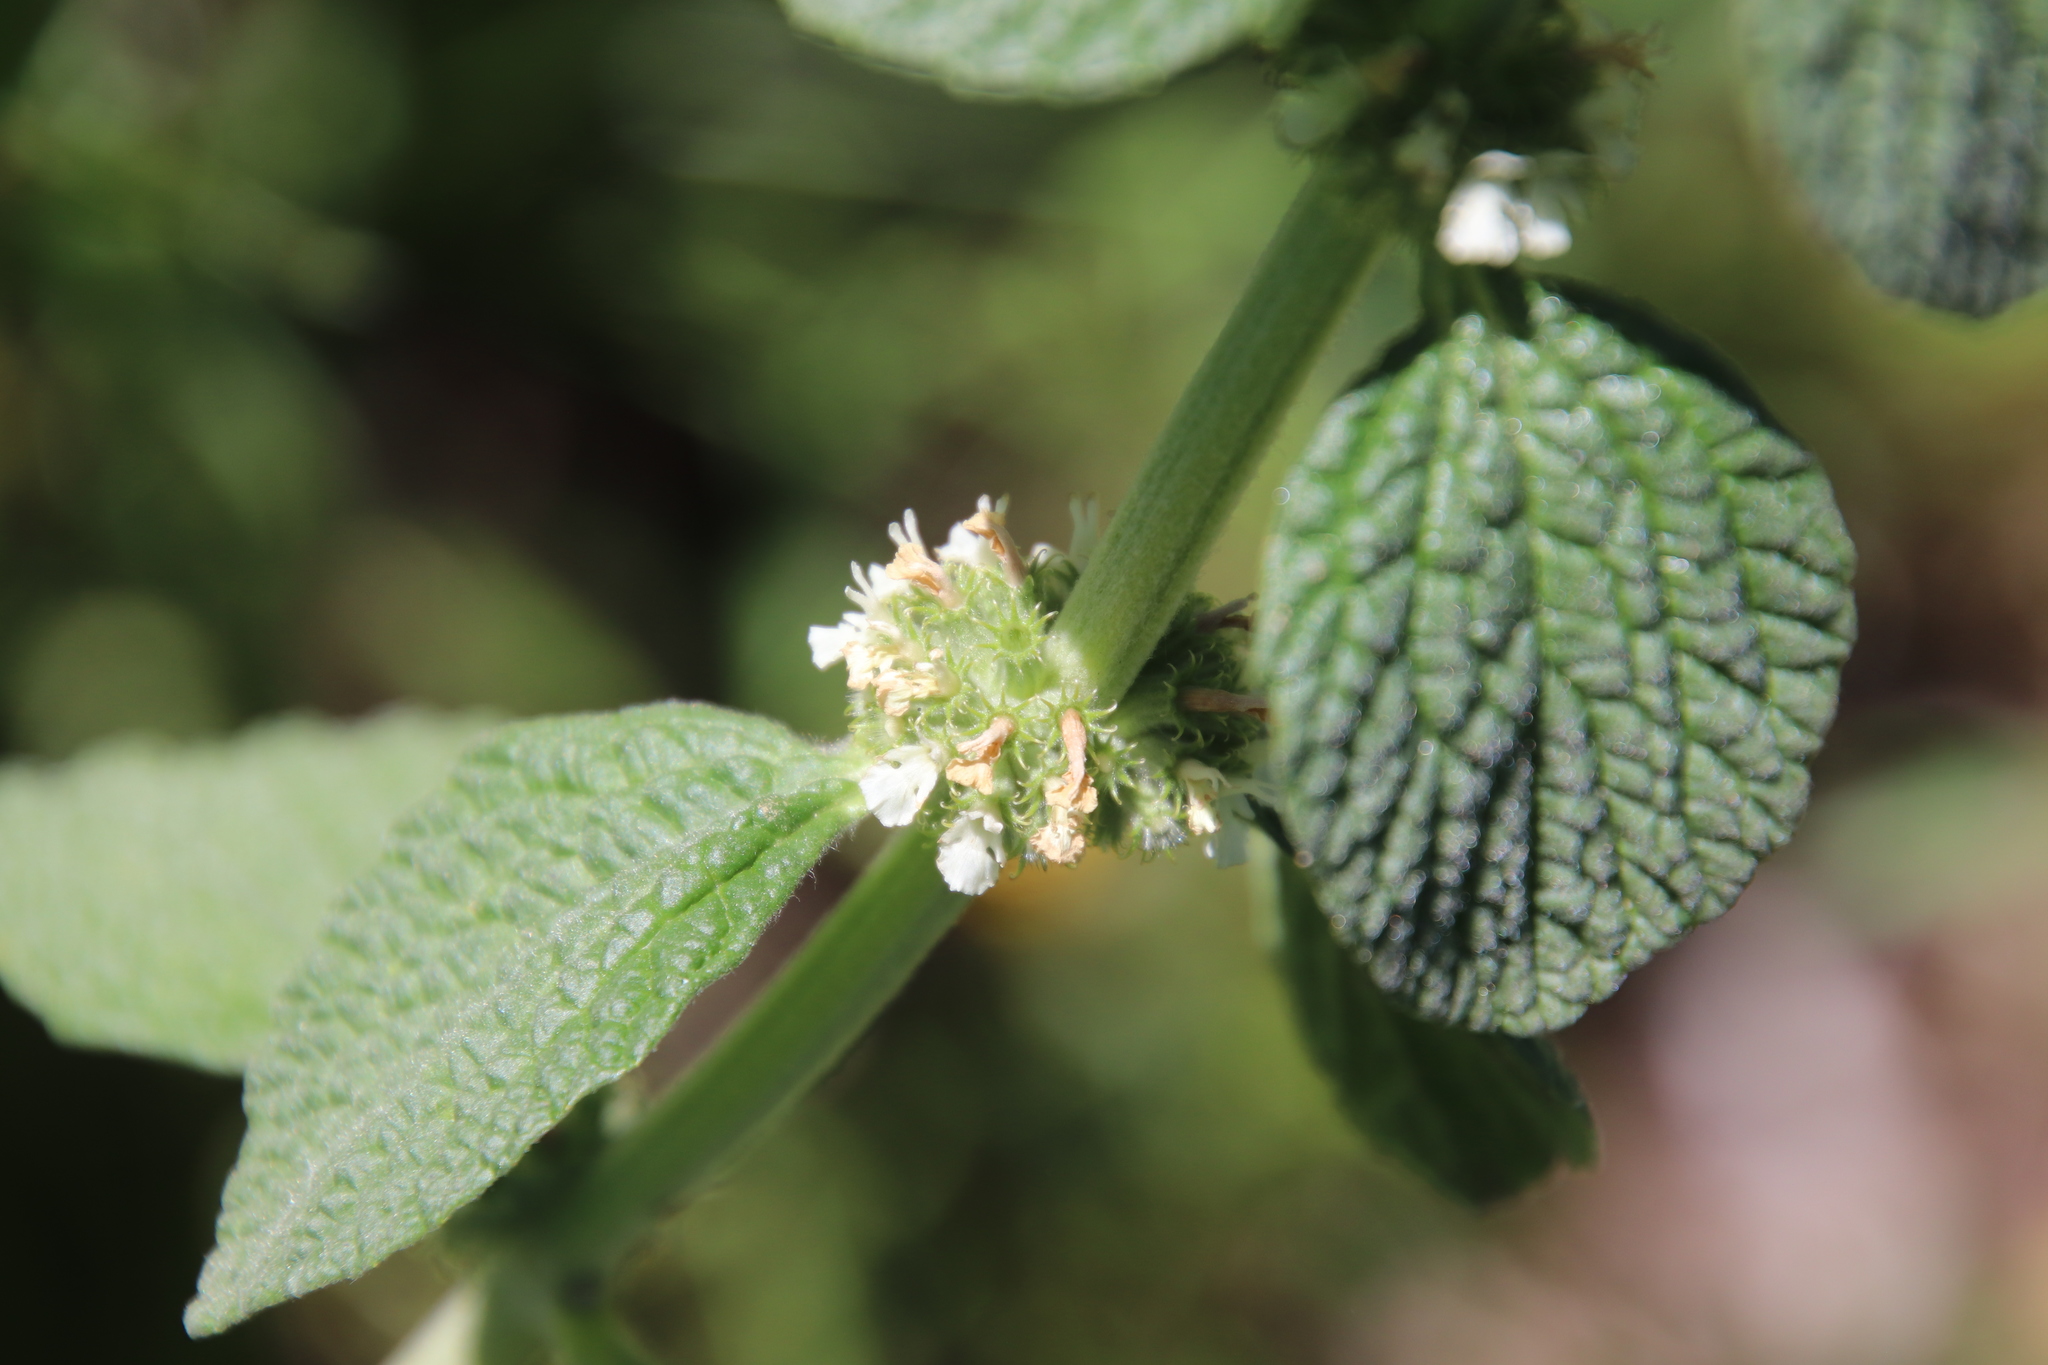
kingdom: Plantae
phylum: Tracheophyta
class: Magnoliopsida
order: Lamiales
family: Lamiaceae
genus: Marrubium
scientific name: Marrubium vulgare
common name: Horehound
